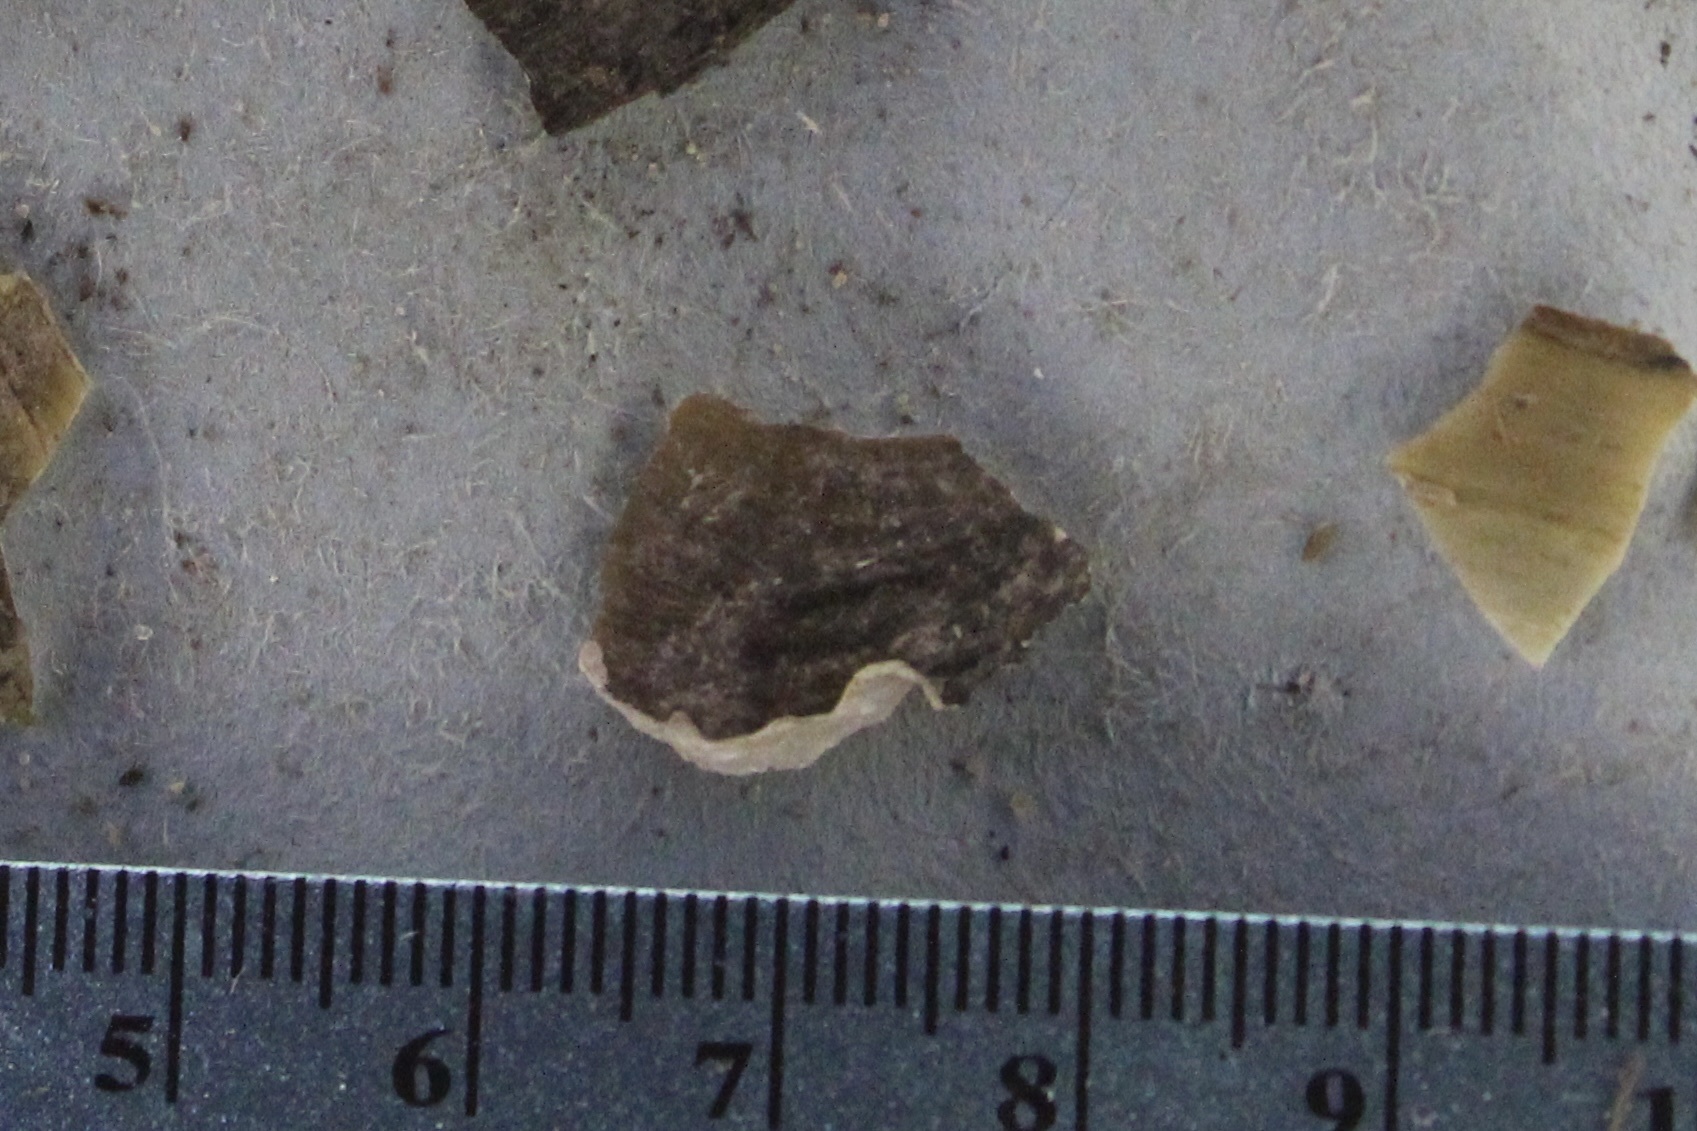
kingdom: Animalia
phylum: Mollusca
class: Bivalvia
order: Unionida
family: Unionidae
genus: Pyganodon
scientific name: Pyganodon grandis
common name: Giant floater
